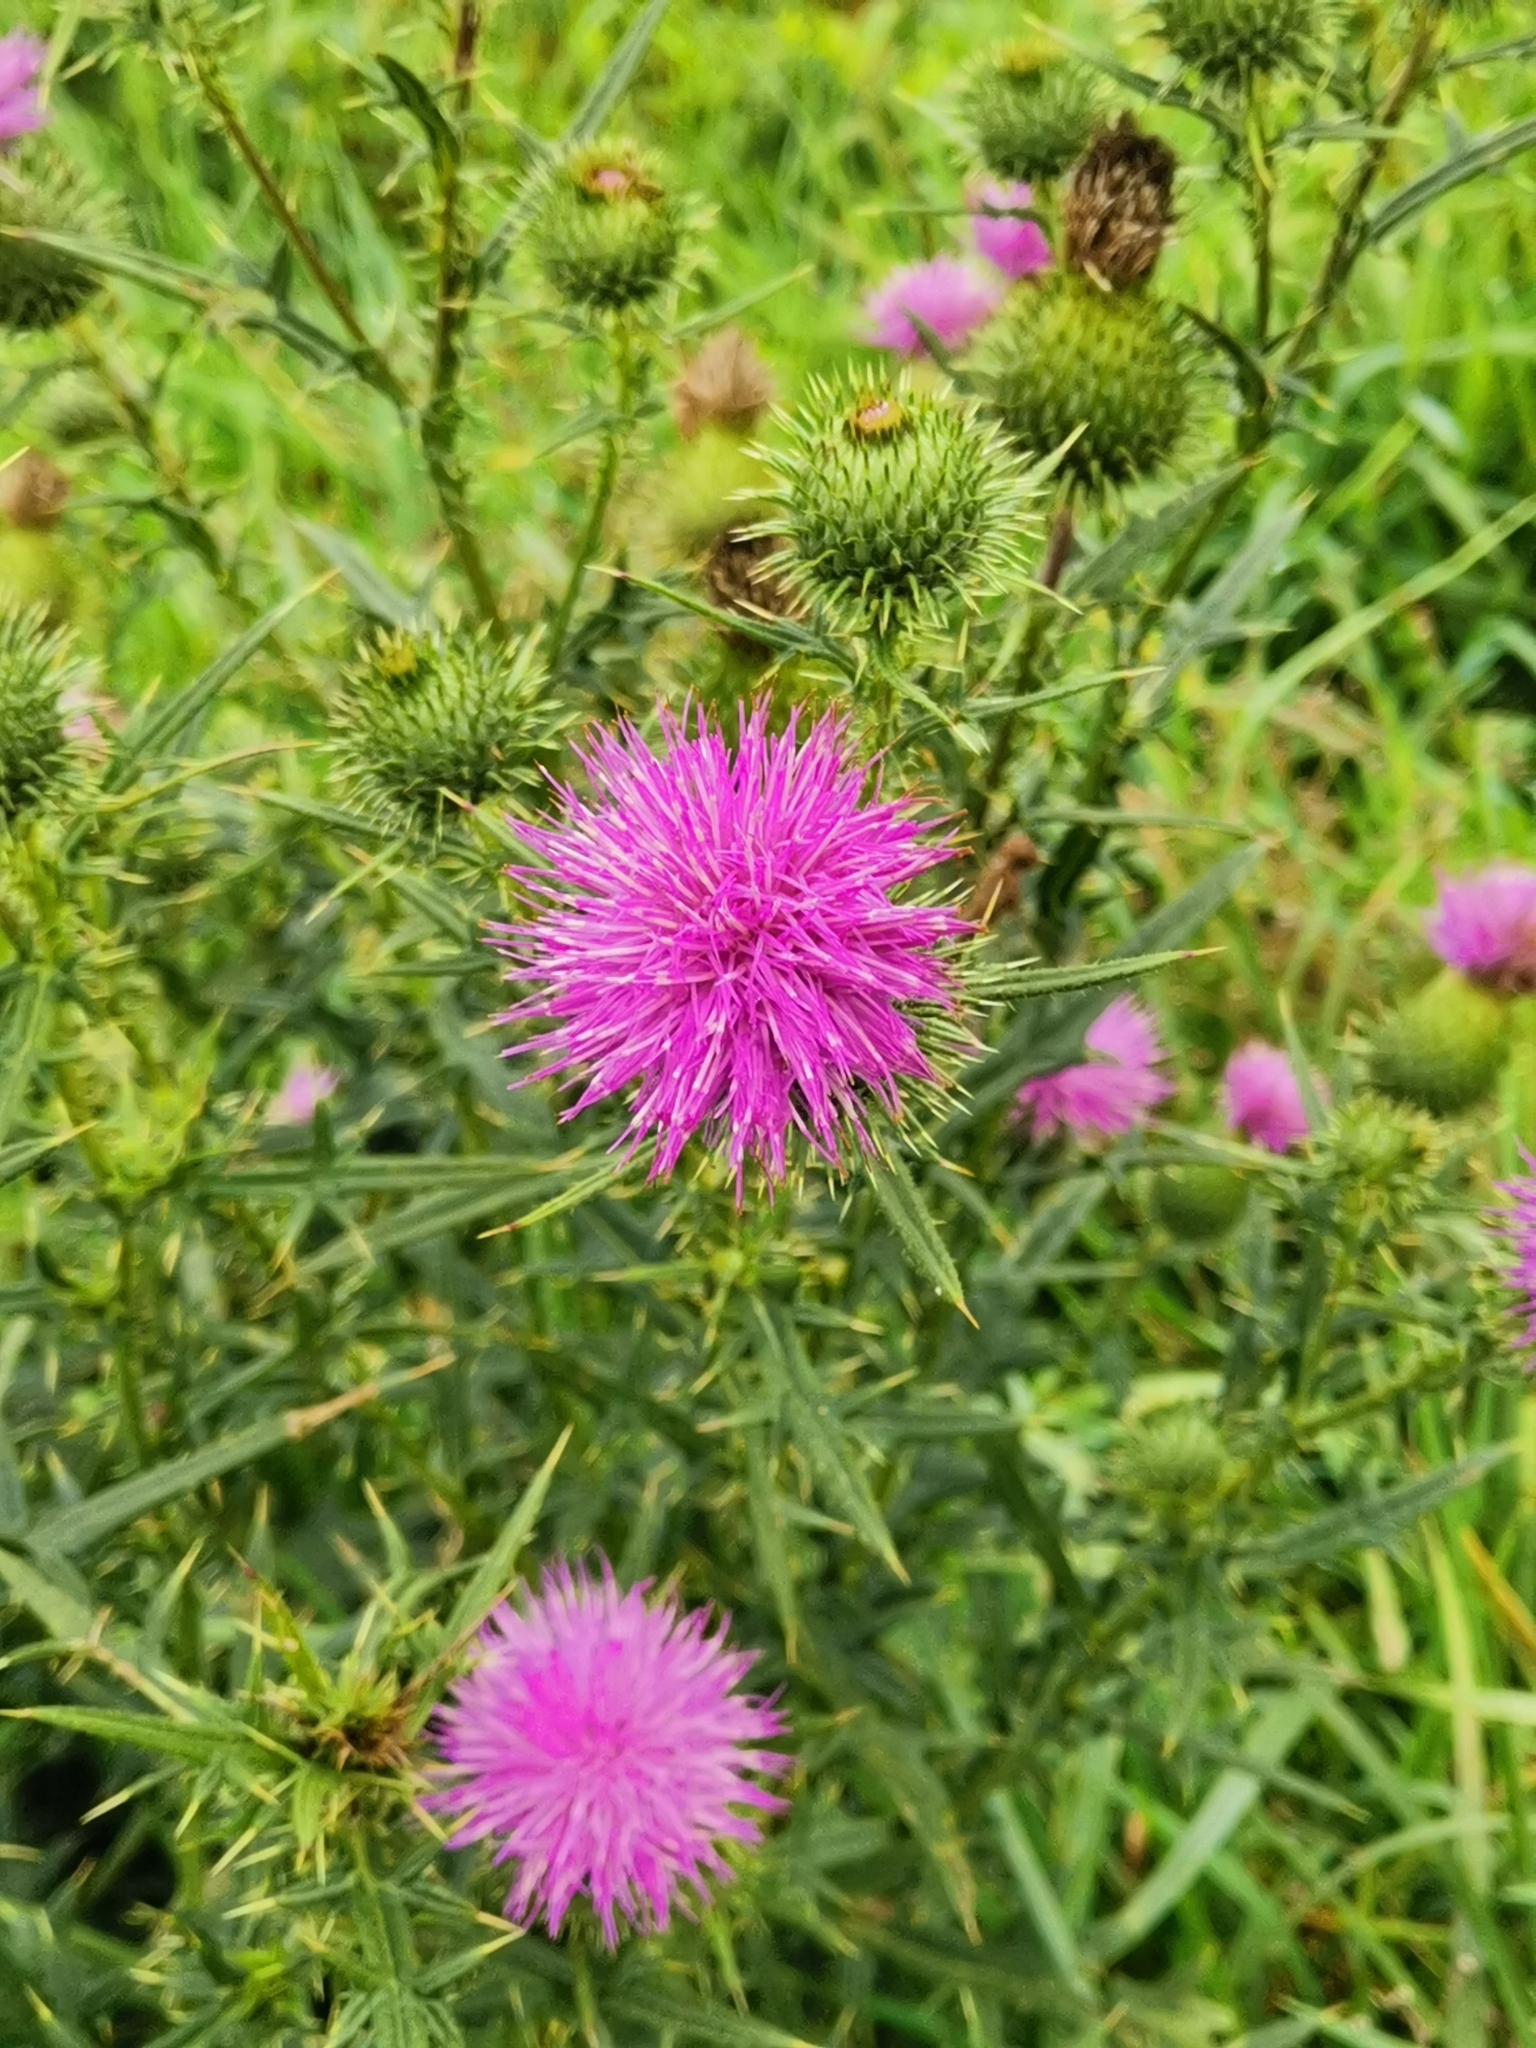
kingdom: Plantae
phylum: Tracheophyta
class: Magnoliopsida
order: Asterales
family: Asteraceae
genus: Cirsium
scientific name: Cirsium vulgare
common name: Bull thistle
